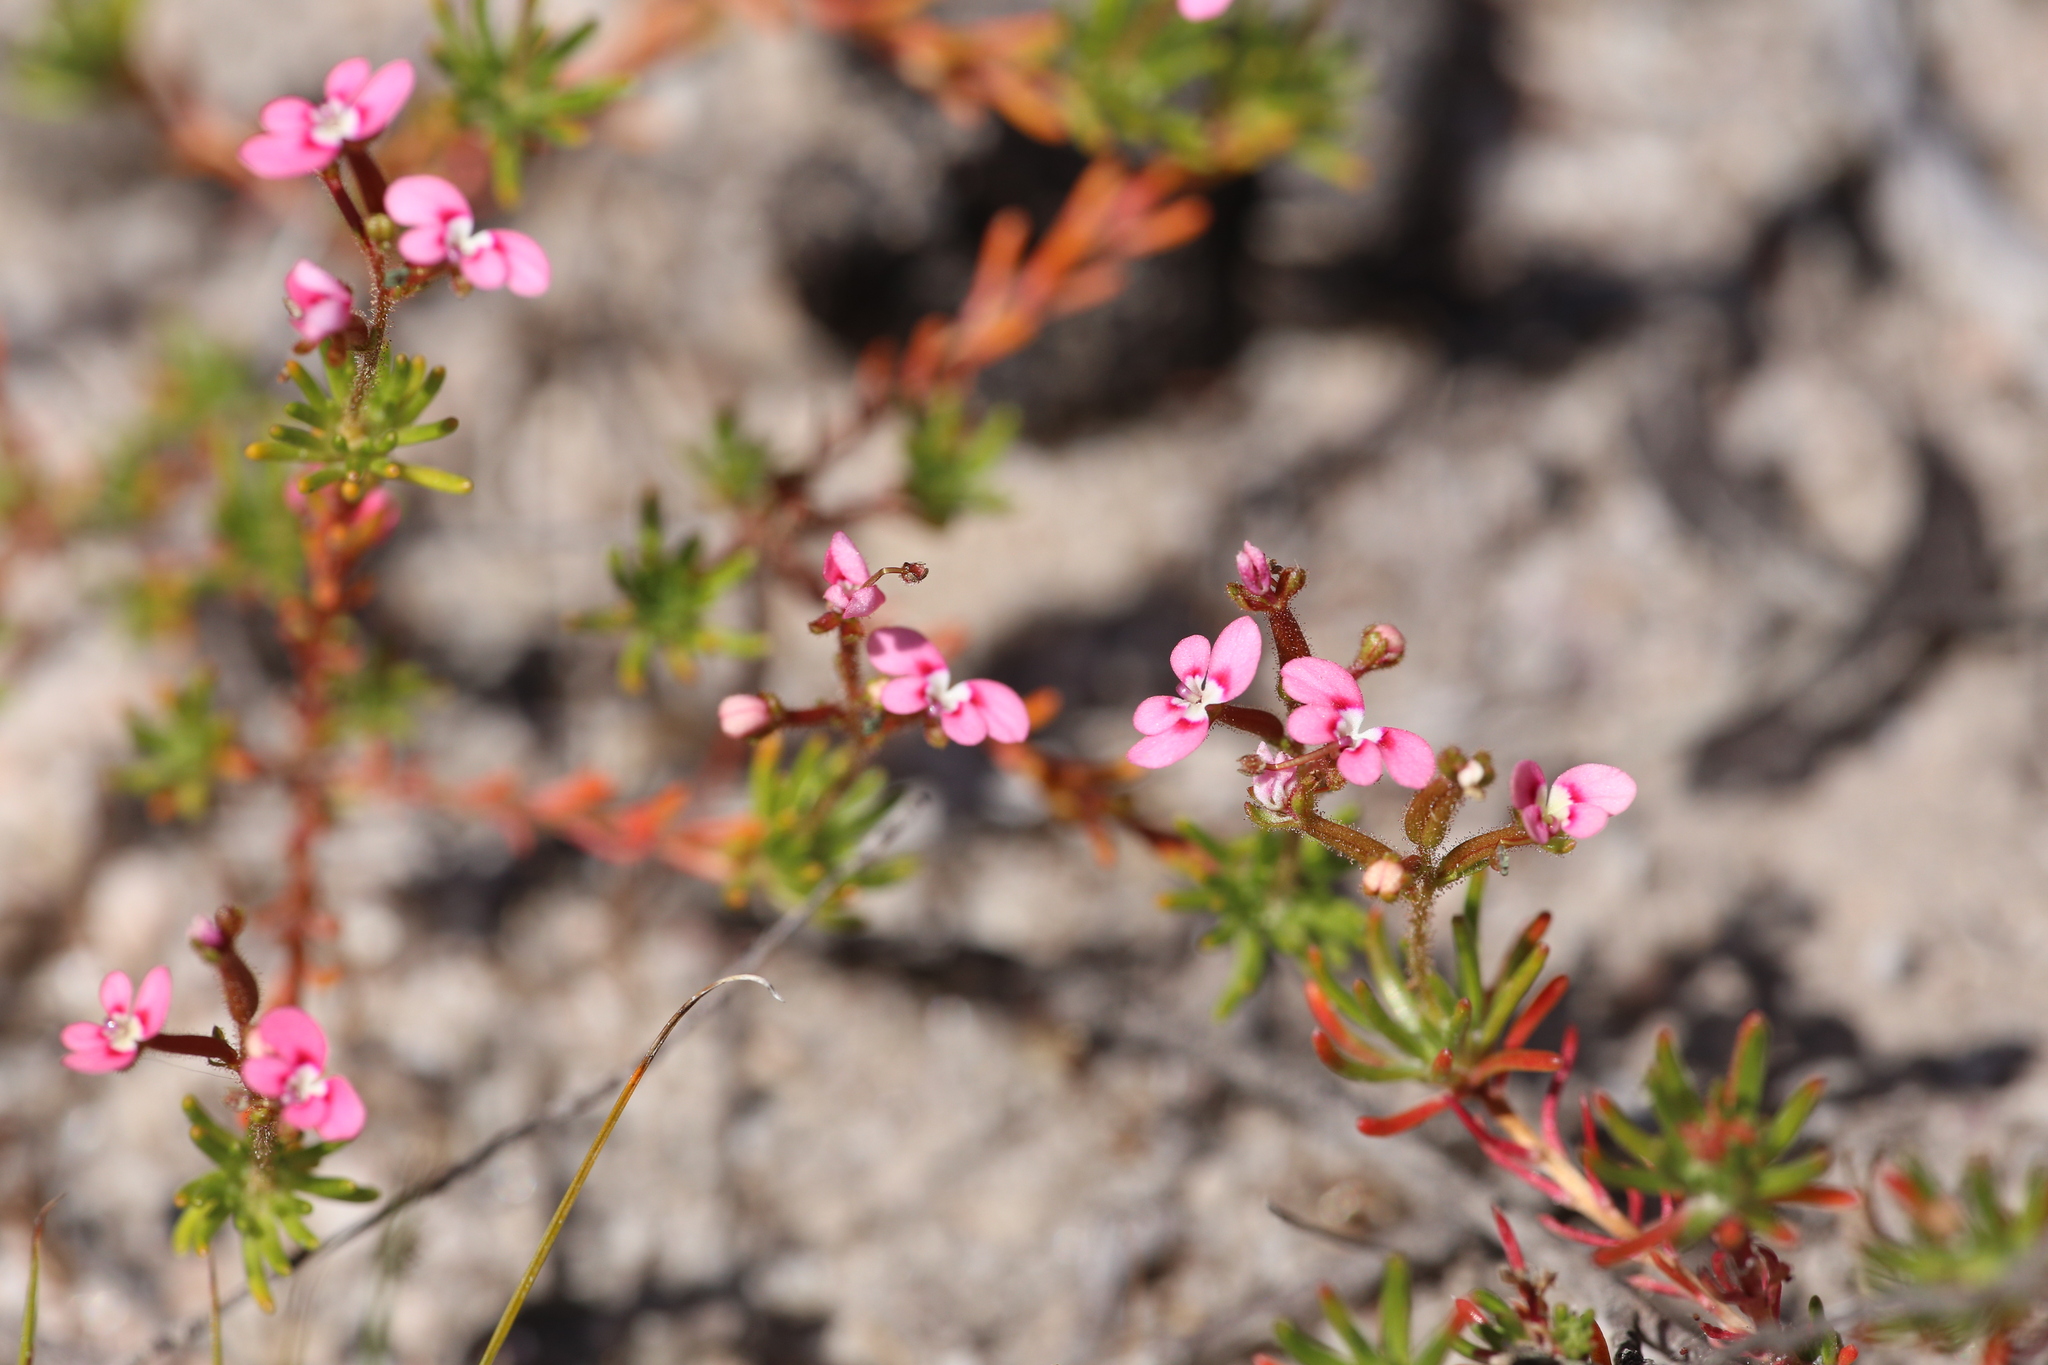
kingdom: Plantae
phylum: Tracheophyta
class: Magnoliopsida
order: Asterales
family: Stylidiaceae
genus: Stylidium
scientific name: Stylidium neglectum
